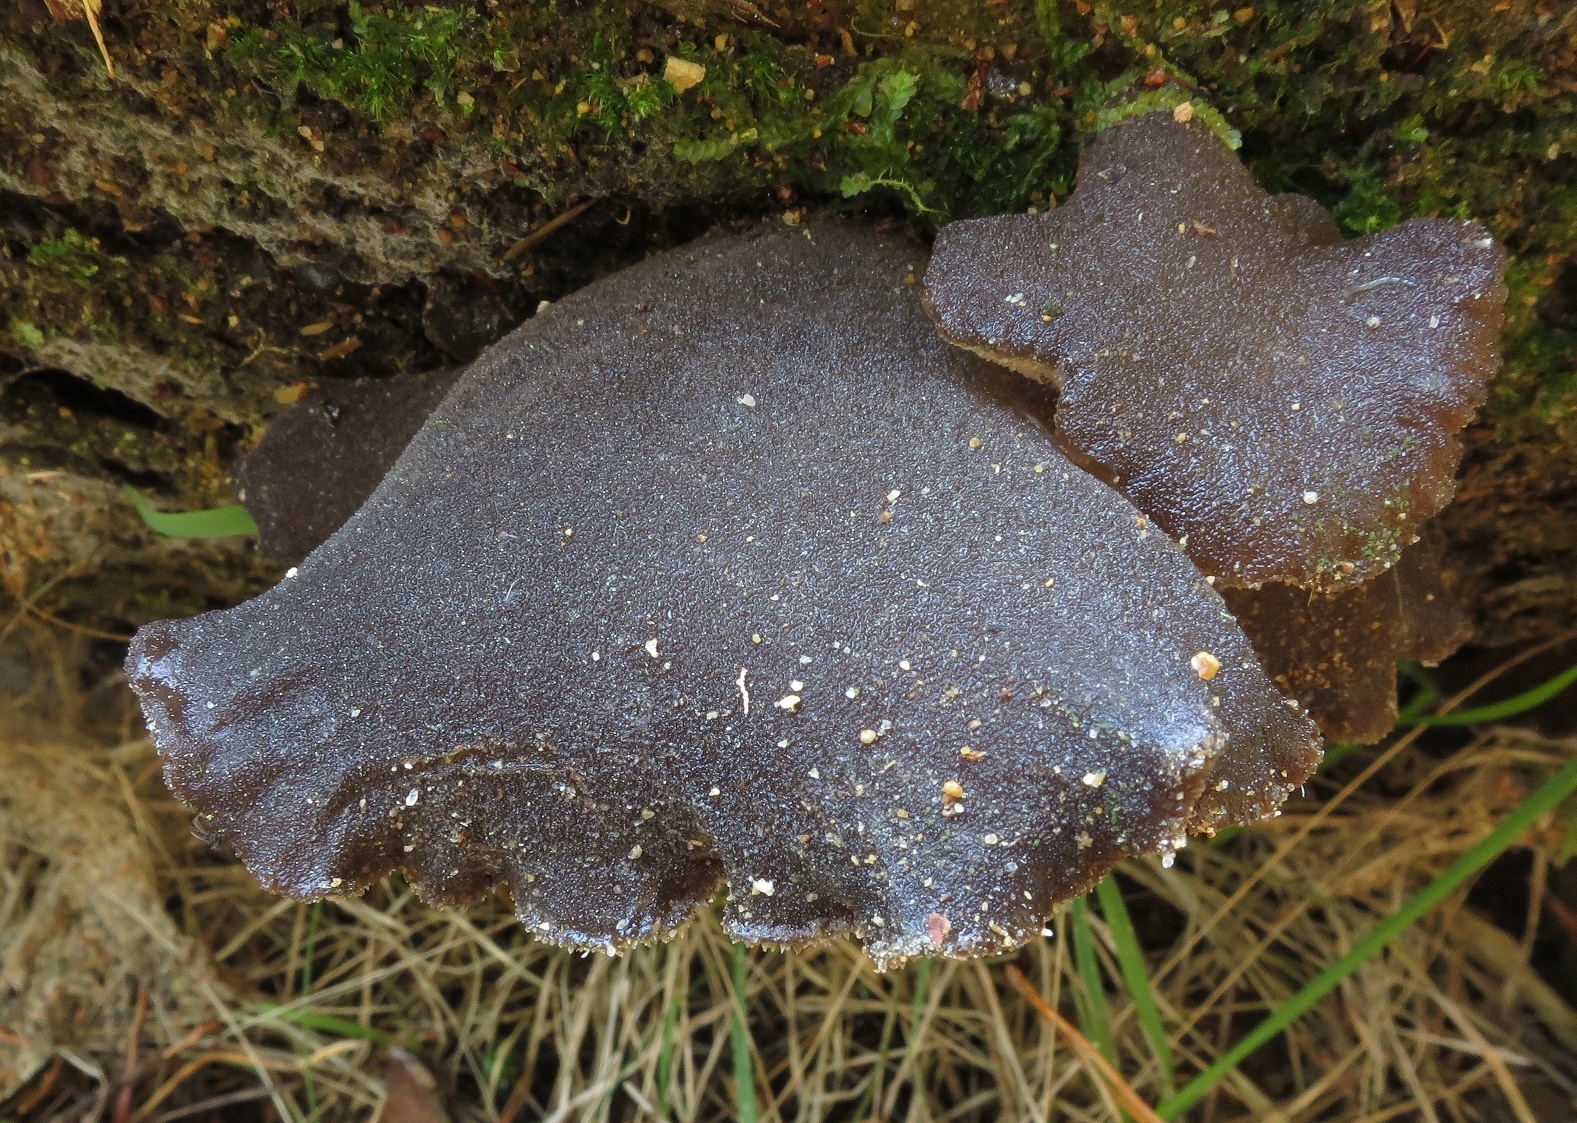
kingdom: Fungi
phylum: Basidiomycota
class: Agaricomycetes
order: Auriculariales
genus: Pseudohydnum
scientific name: Pseudohydnum orbiculare
